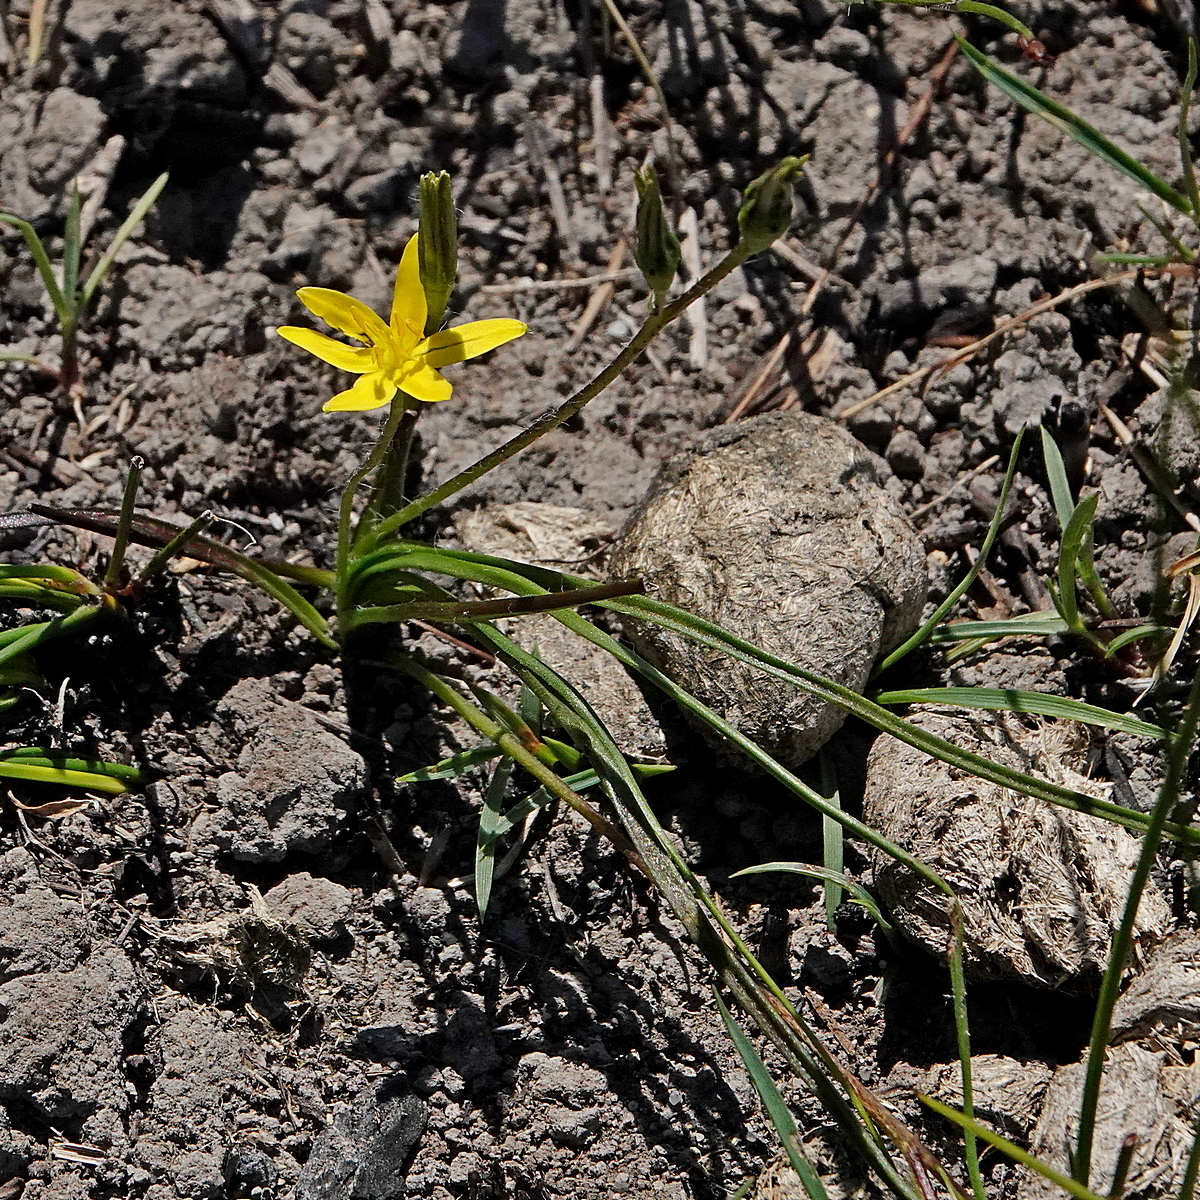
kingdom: Plantae
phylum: Tracheophyta
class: Liliopsida
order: Asparagales
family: Hypoxidaceae
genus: Hypoxis
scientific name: Hypoxis hygrometrica
